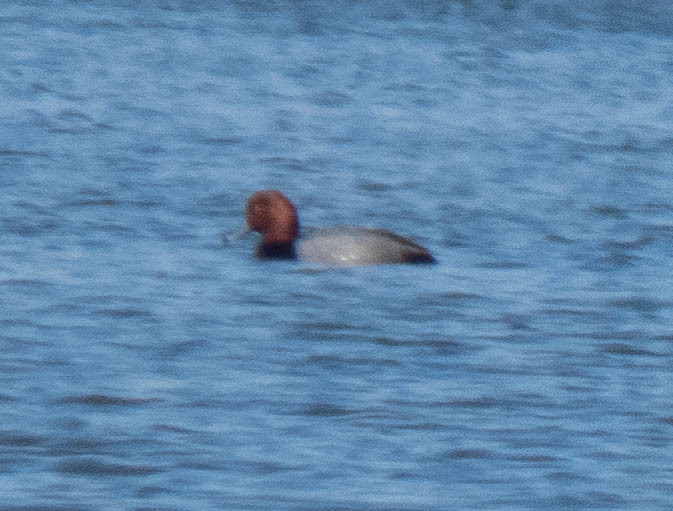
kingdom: Animalia
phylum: Chordata
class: Aves
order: Anseriformes
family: Anatidae
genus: Aythya
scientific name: Aythya americana
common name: Redhead
